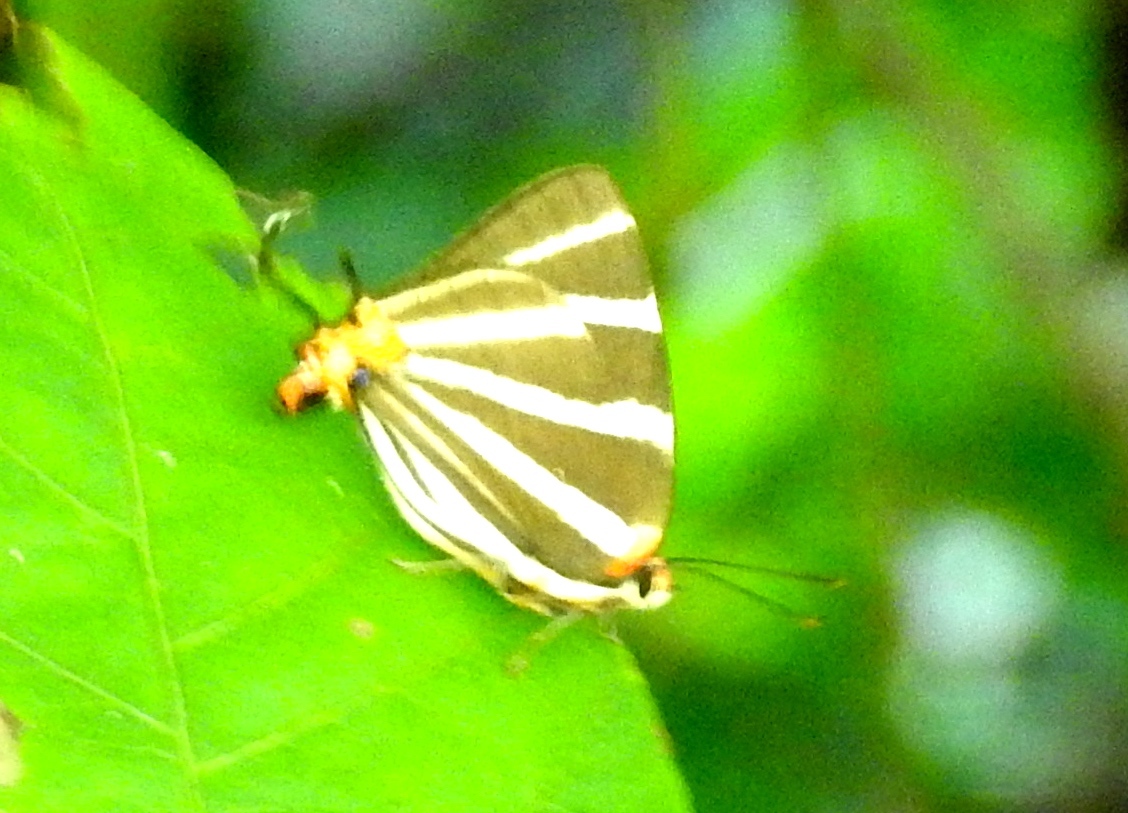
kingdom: Animalia
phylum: Arthropoda
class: Insecta
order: Lepidoptera
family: Lycaenidae
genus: Thecla
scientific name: Thecla bathildis
